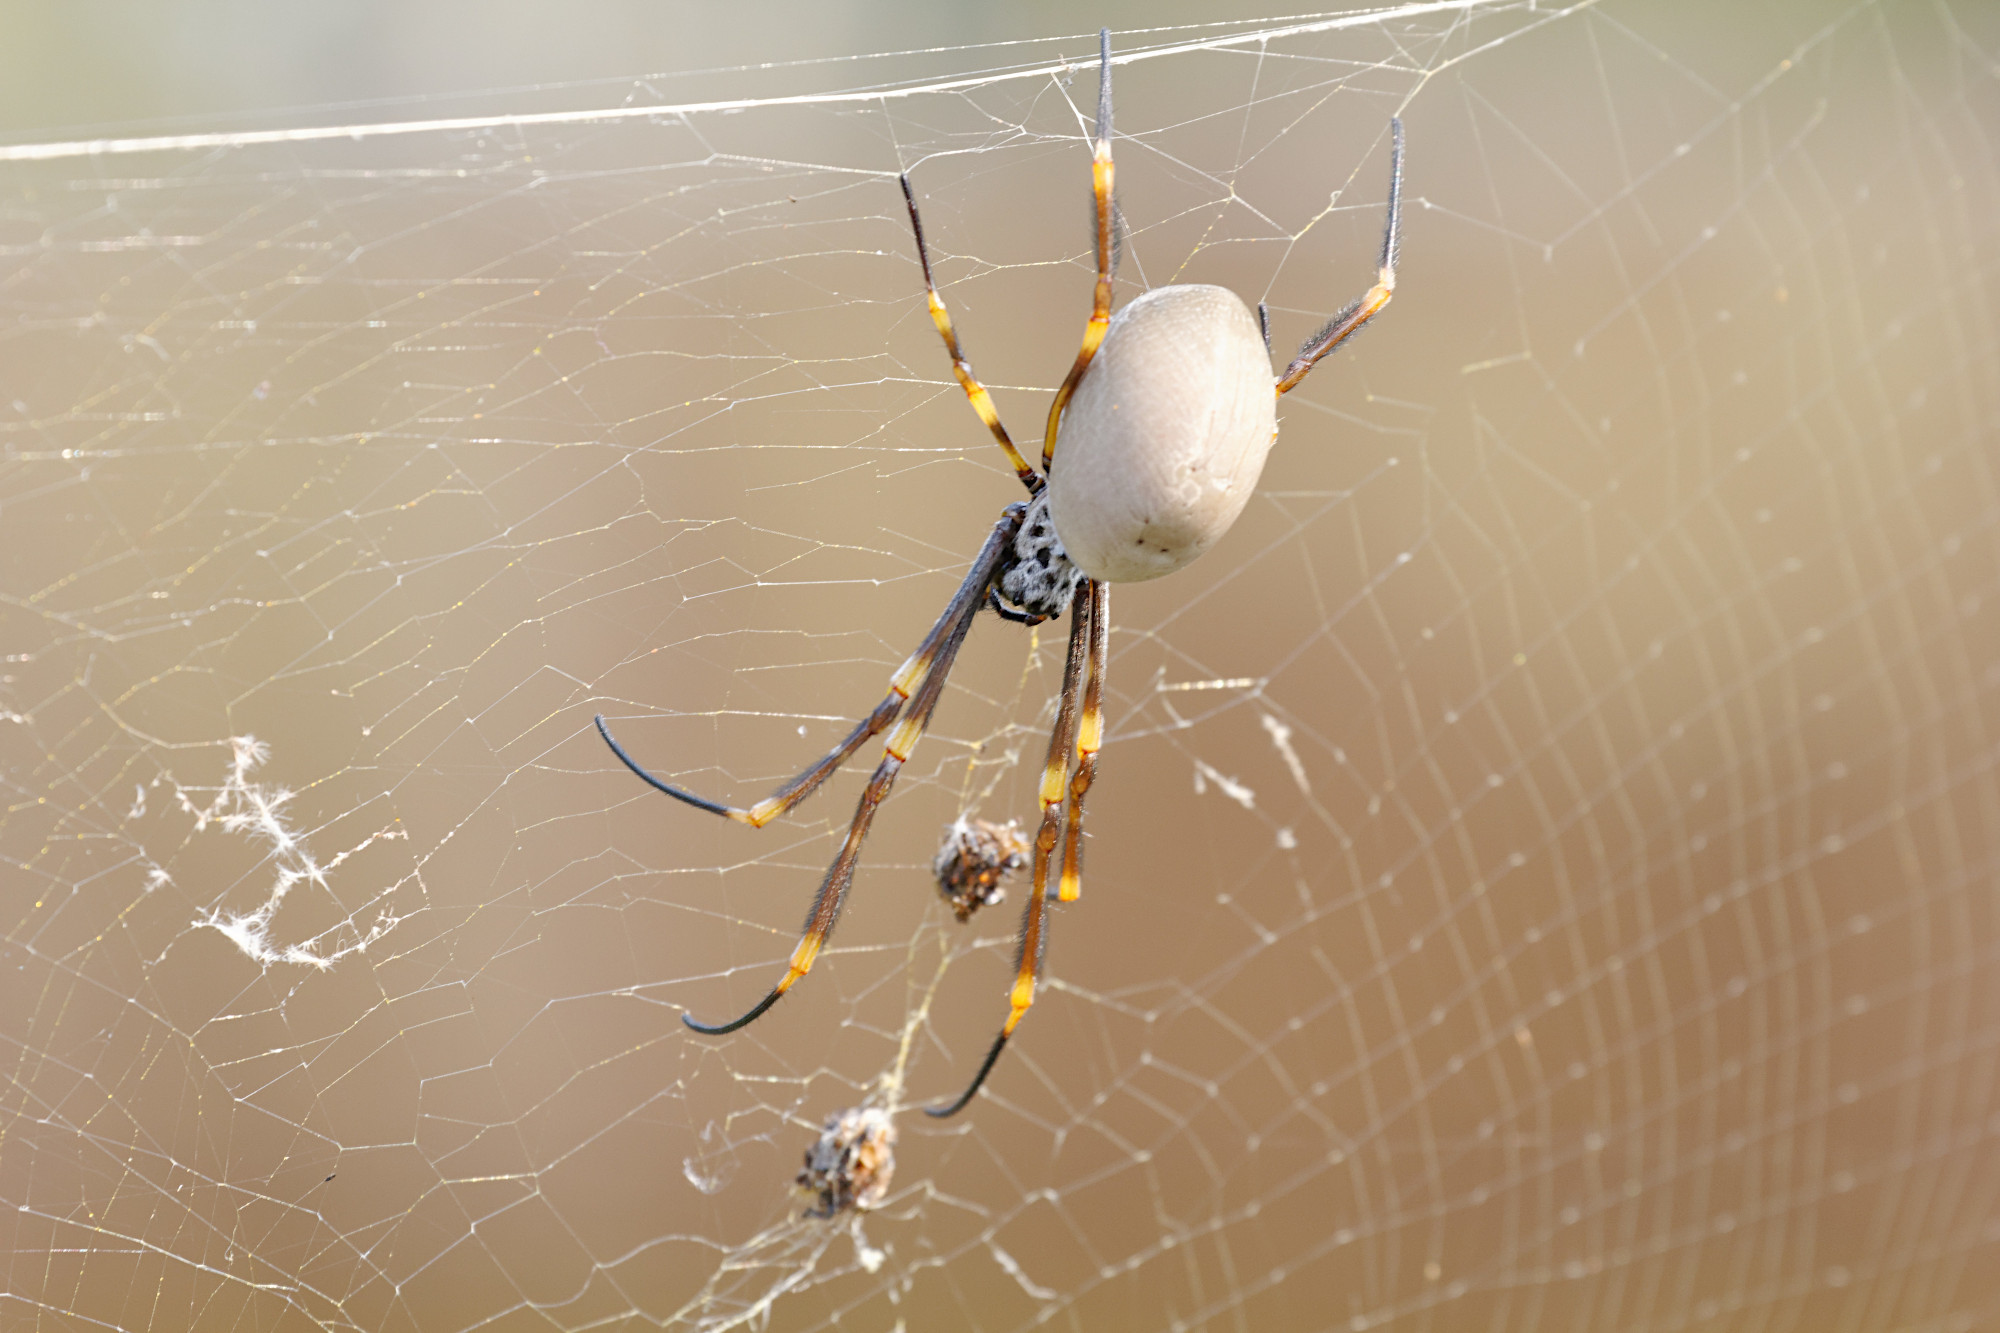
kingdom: Animalia
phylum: Arthropoda
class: Arachnida
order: Araneae
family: Araneidae
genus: Trichonephila
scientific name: Trichonephila plumipes
